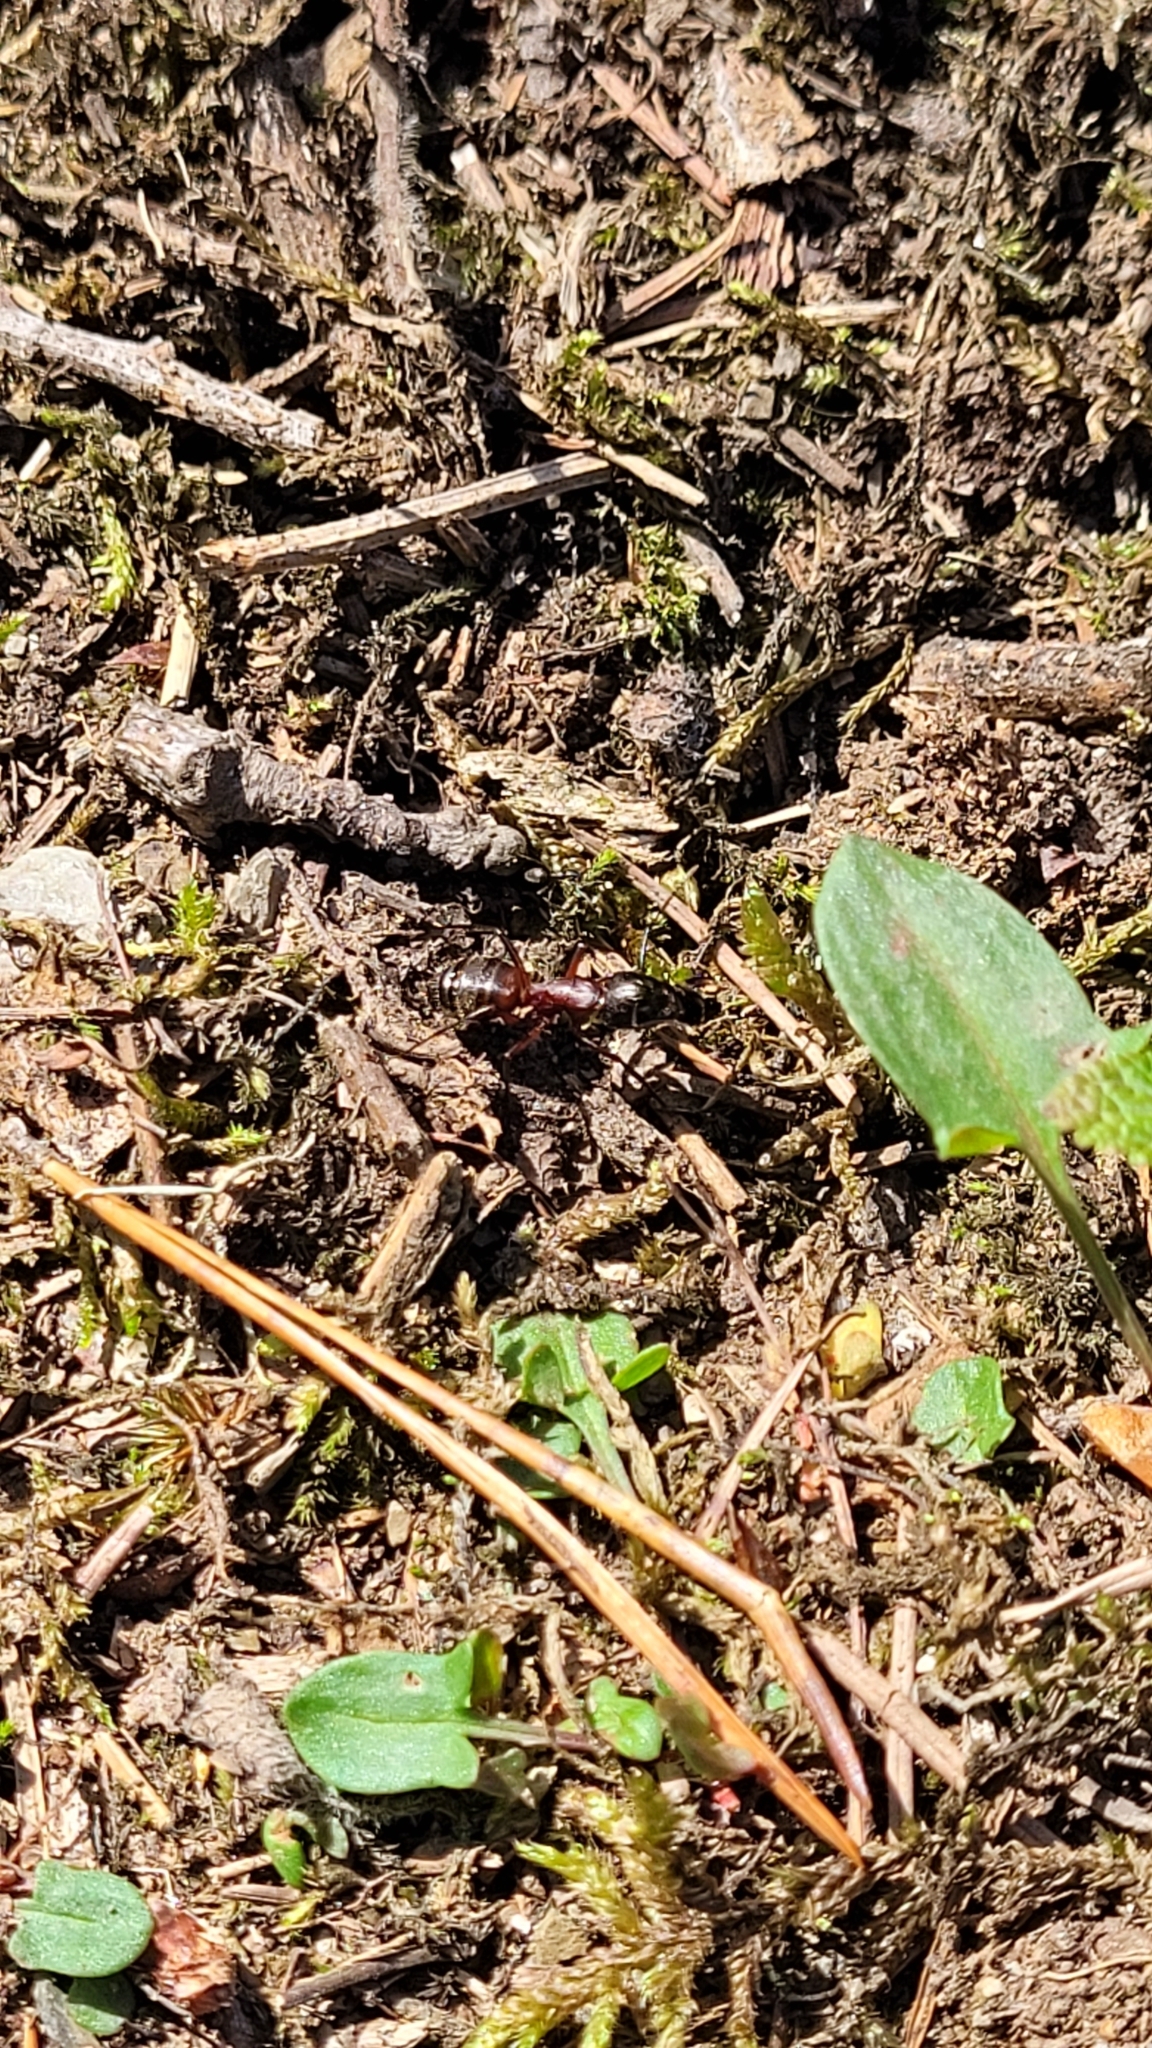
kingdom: Animalia
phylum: Arthropoda
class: Insecta
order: Hymenoptera
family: Formicidae
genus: Camponotus
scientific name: Camponotus ligniperdus
